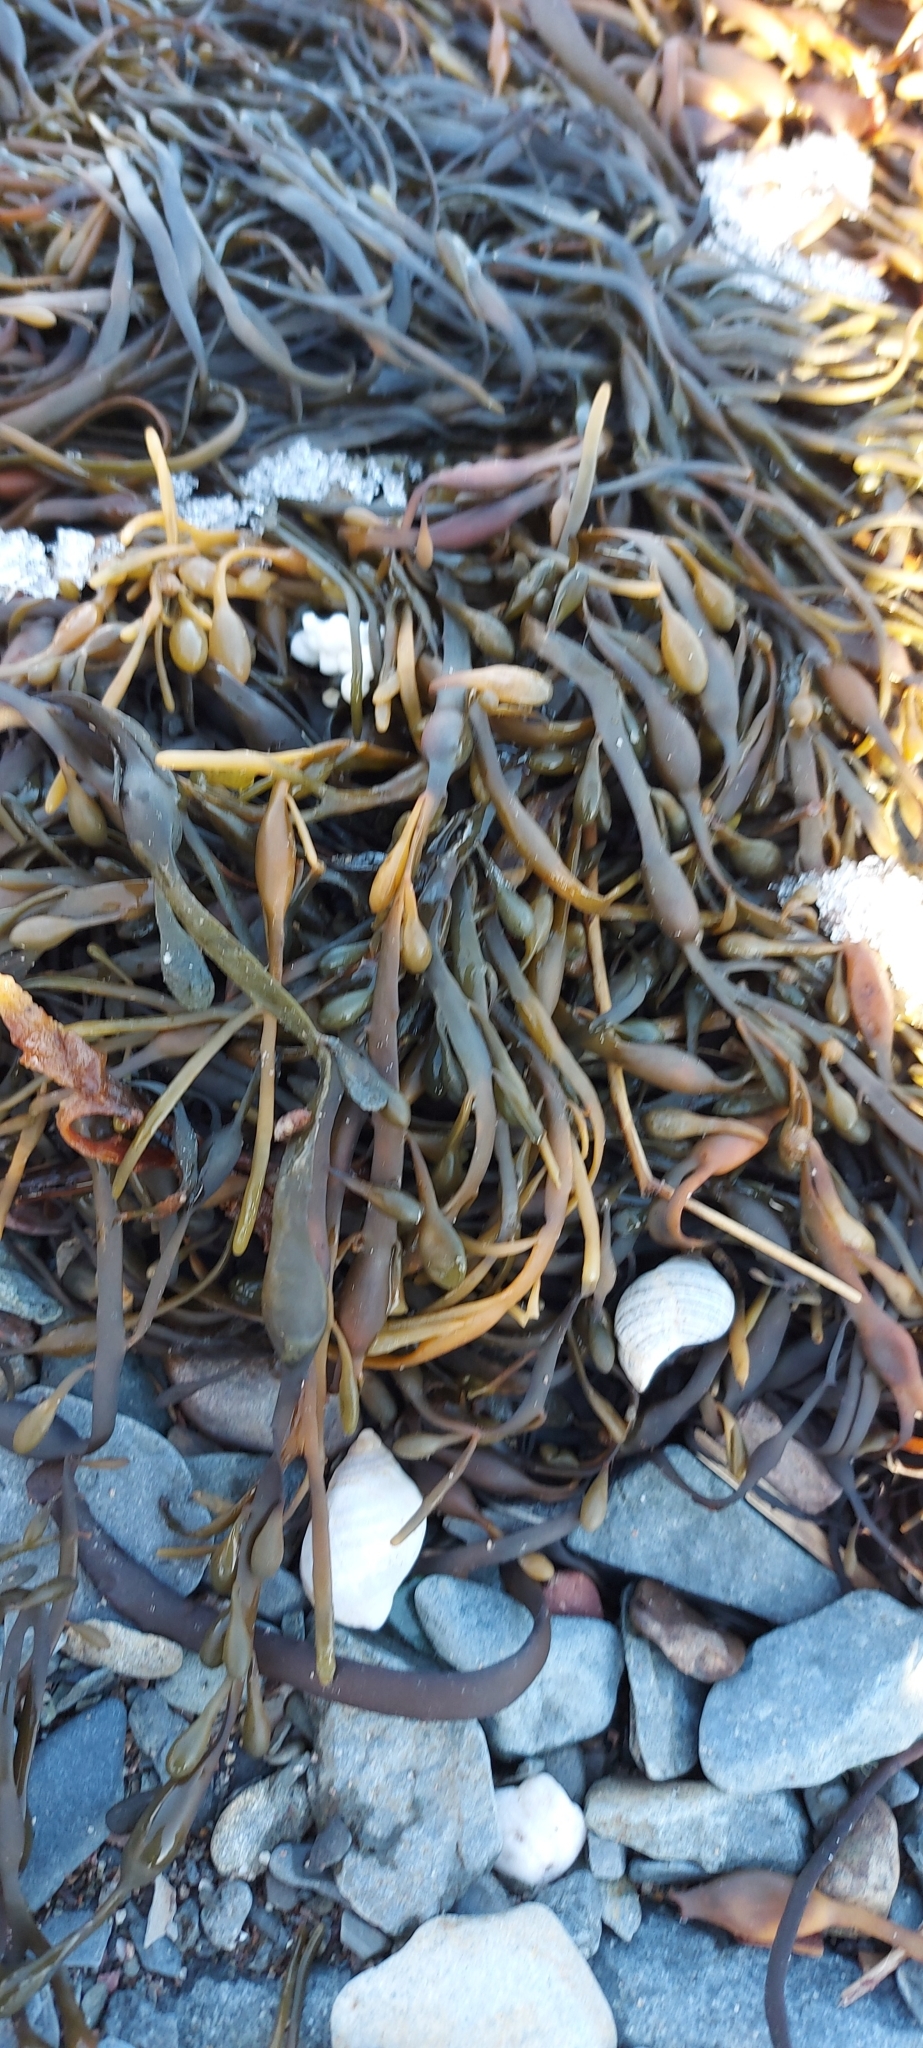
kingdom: Chromista
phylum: Ochrophyta
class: Phaeophyceae
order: Fucales
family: Fucaceae
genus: Ascophyllum
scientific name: Ascophyllum nodosum
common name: Knotted wrack
